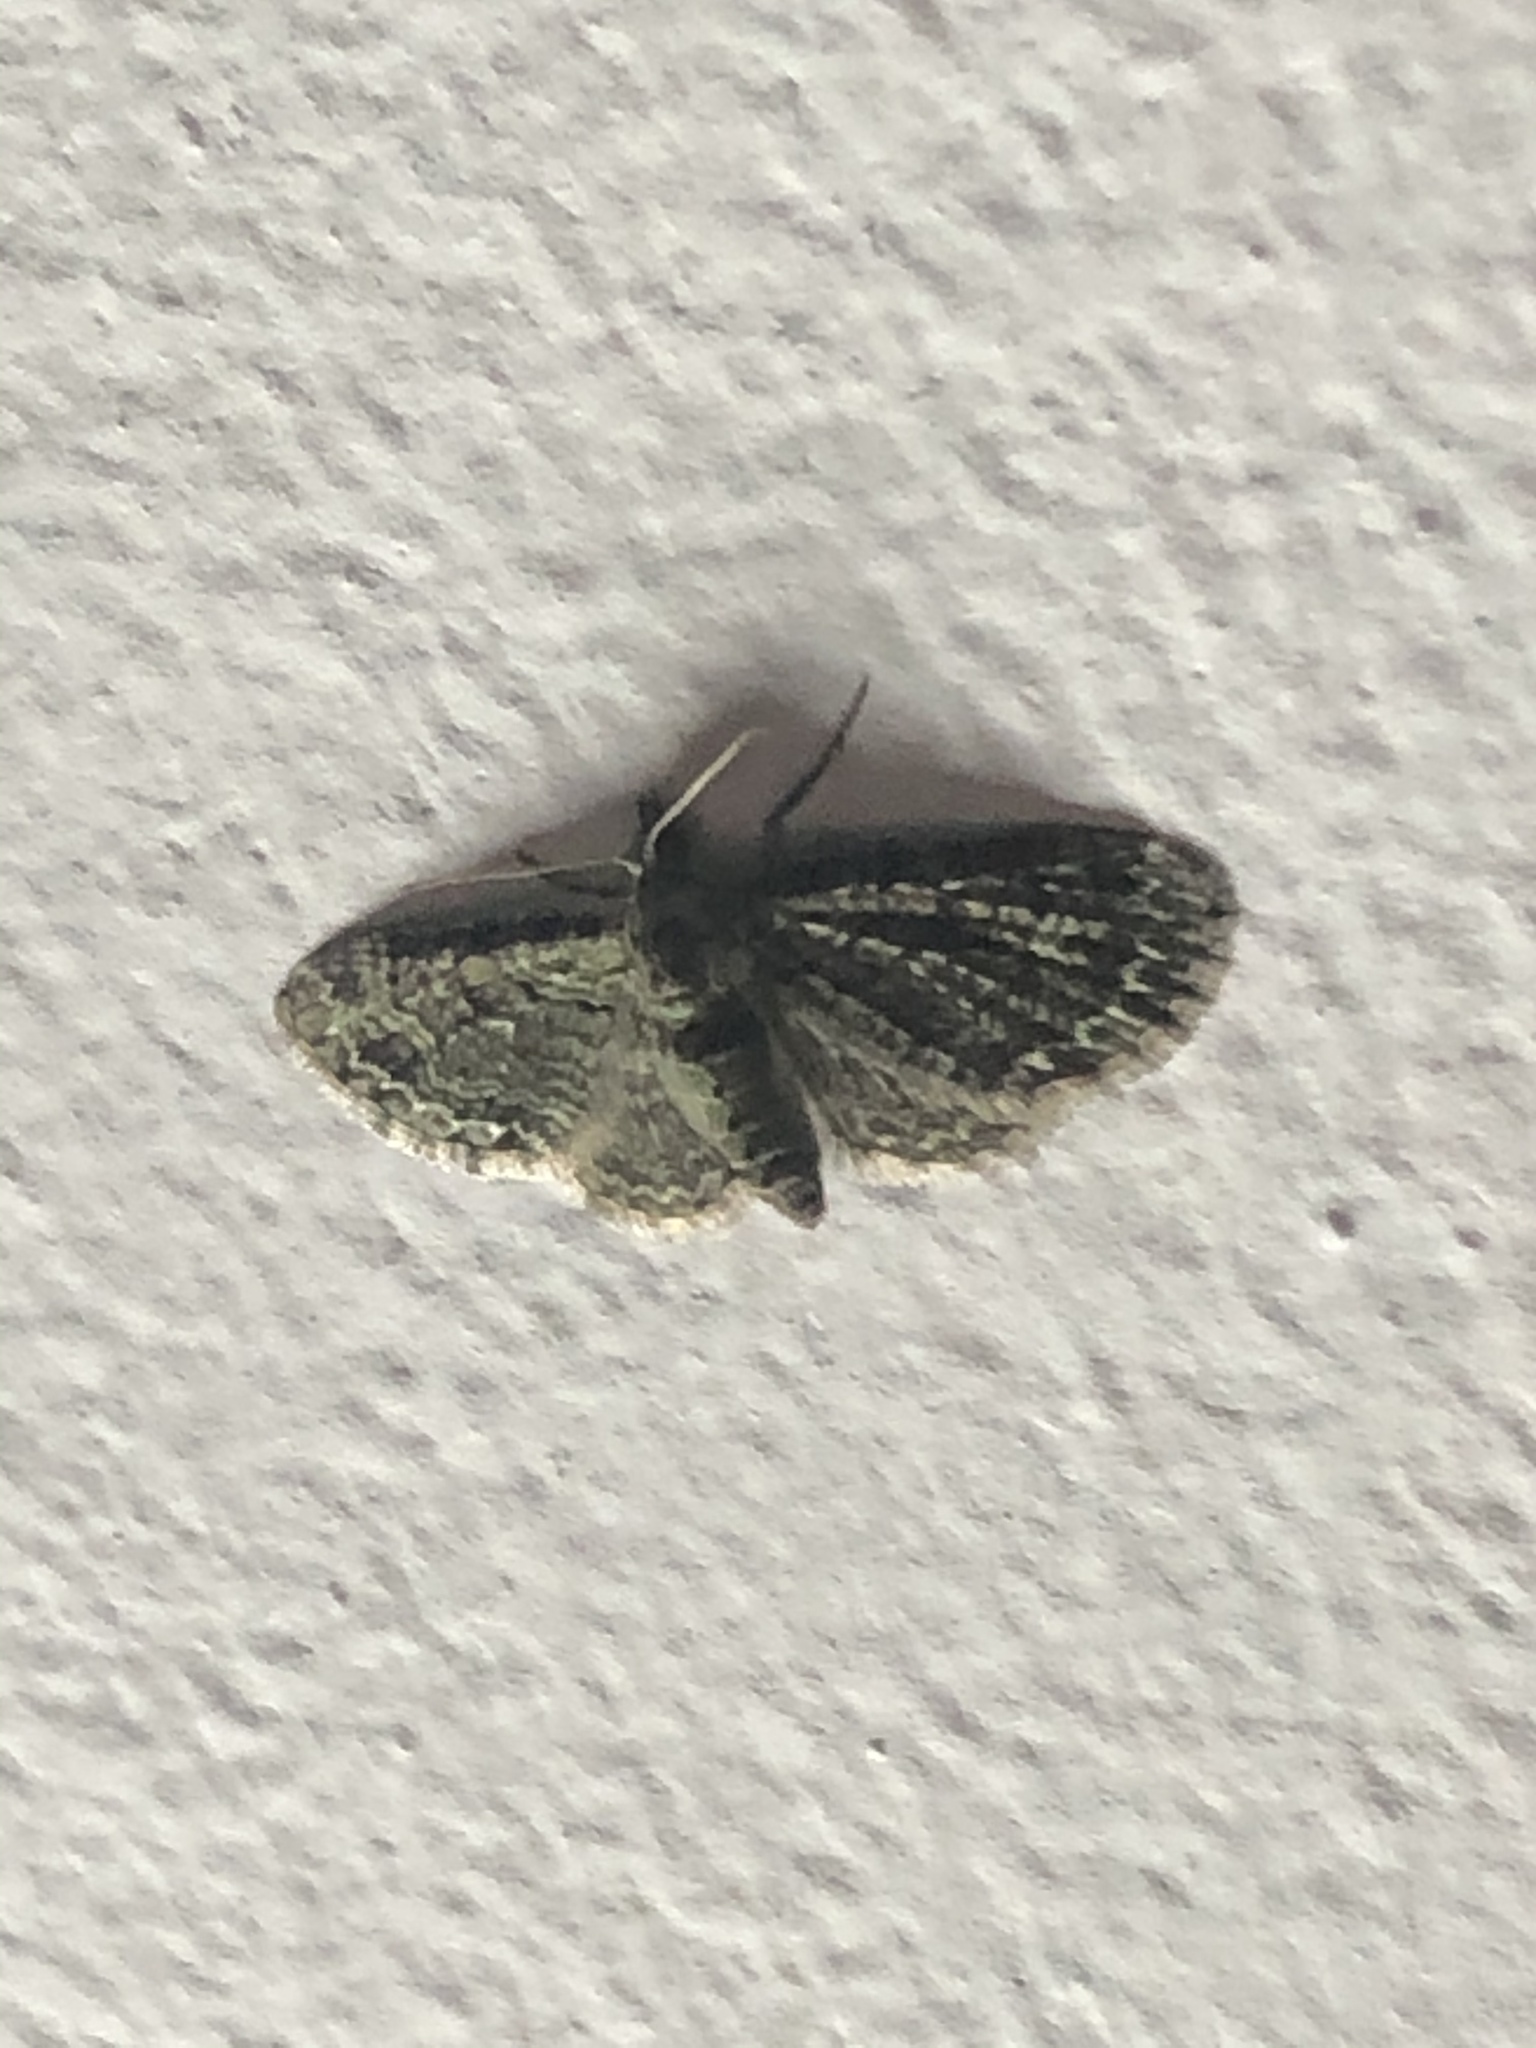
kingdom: Animalia
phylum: Arthropoda
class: Insecta
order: Lepidoptera
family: Geometridae
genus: Pasiphila
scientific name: Pasiphila rectangulata
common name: Green pug
